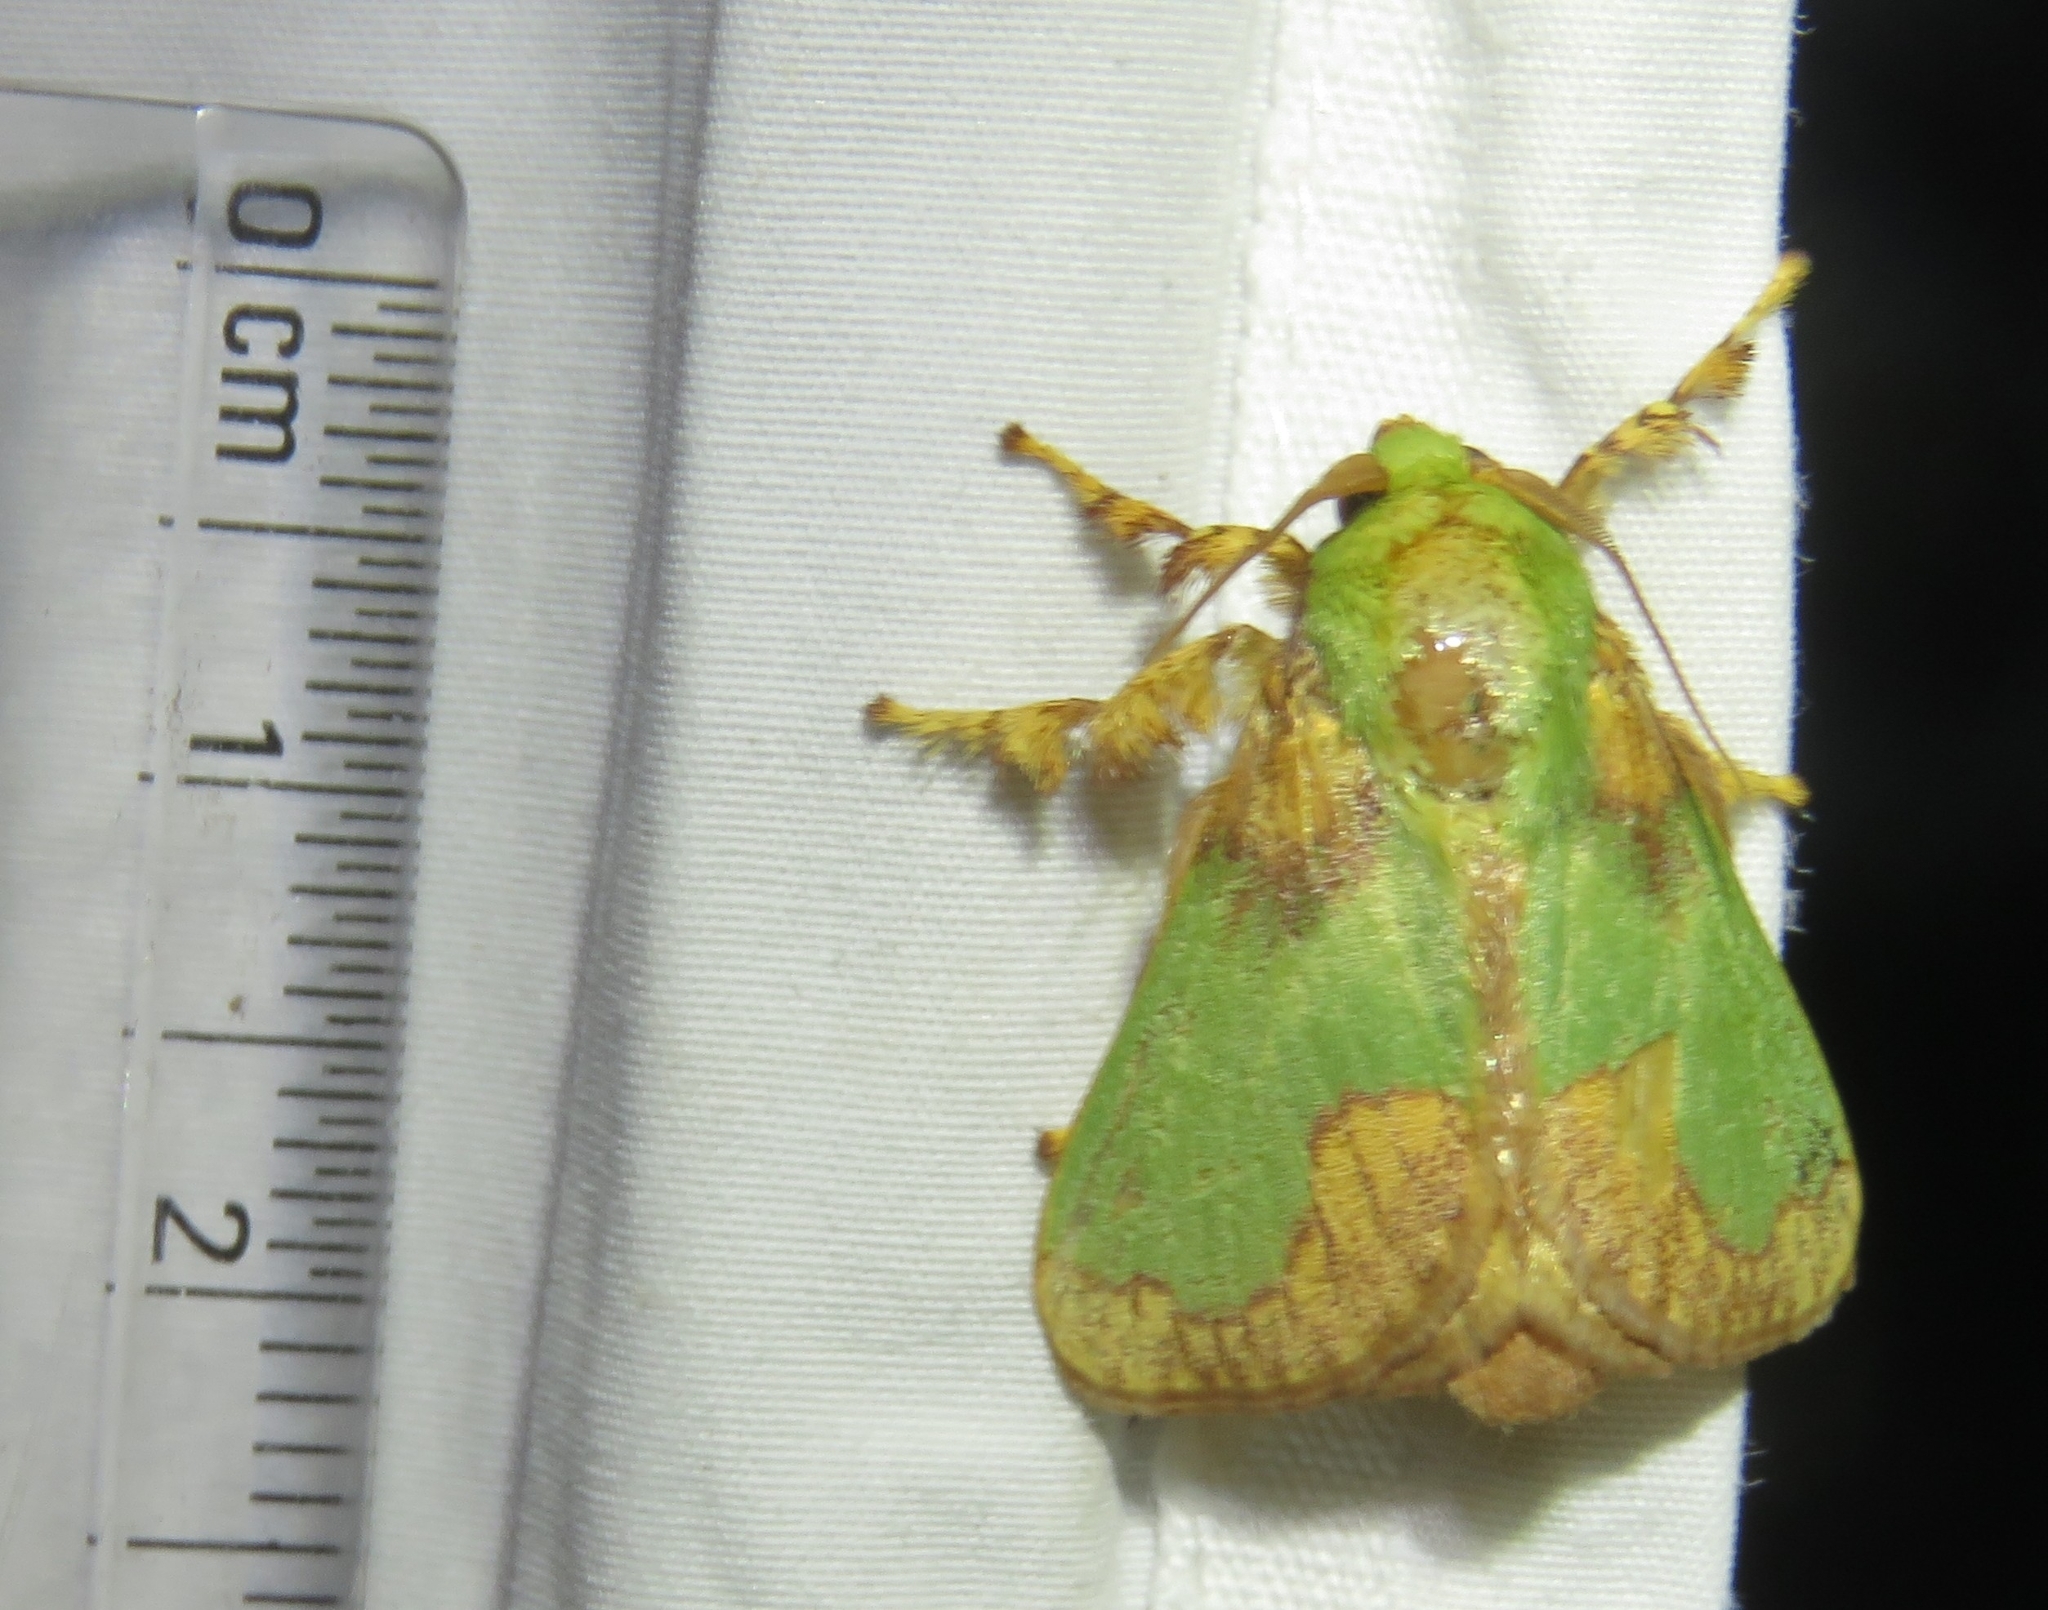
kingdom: Animalia
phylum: Arthropoda
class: Insecta
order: Lepidoptera
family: Limacodidae
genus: Parasa
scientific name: Parasa pastoralis
